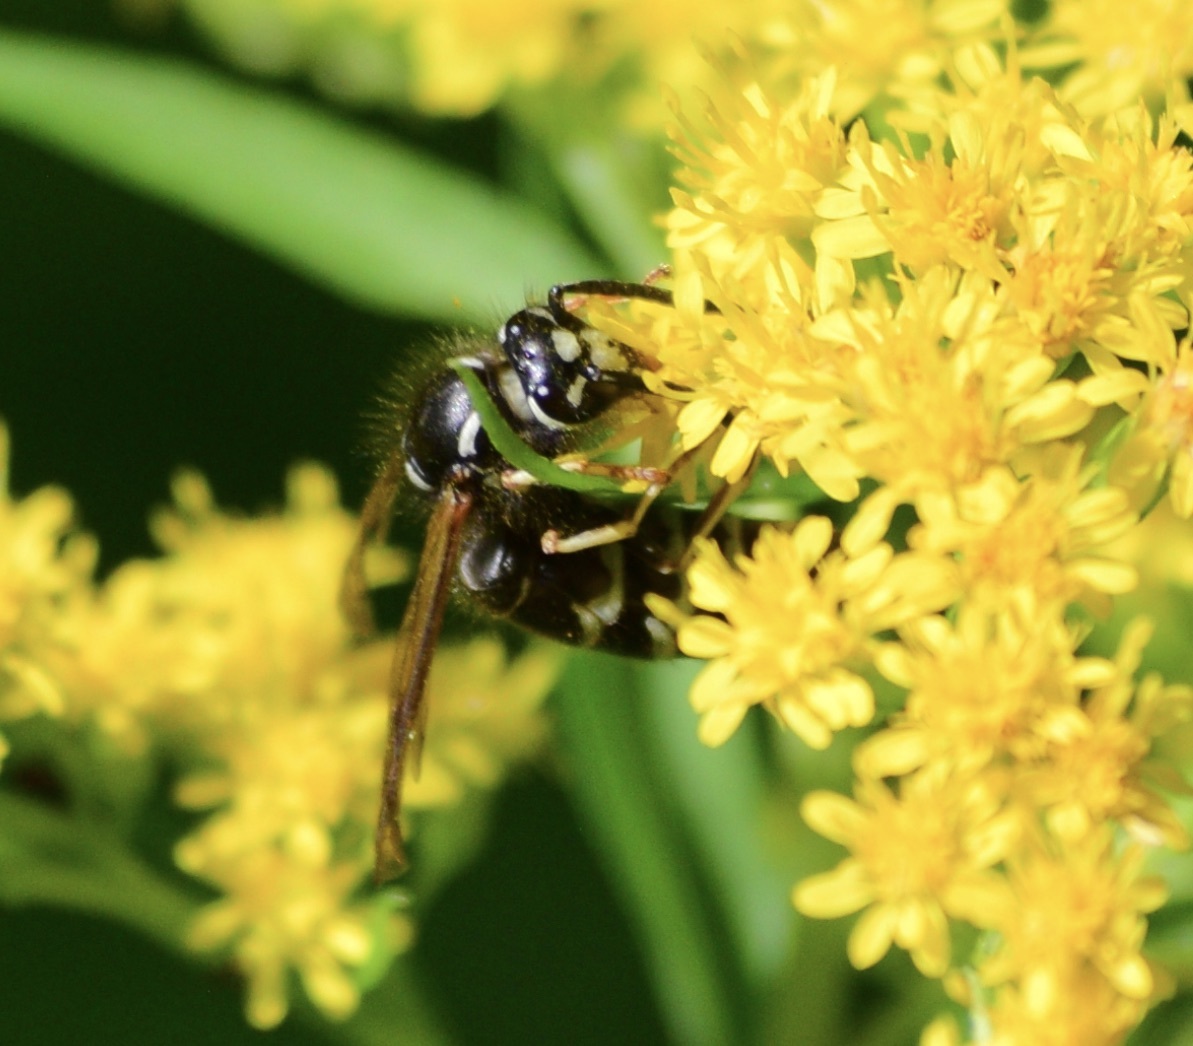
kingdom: Animalia
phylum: Arthropoda
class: Insecta
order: Hymenoptera
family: Vespidae
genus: Vespula
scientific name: Vespula consobrina
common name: Blackjacket
